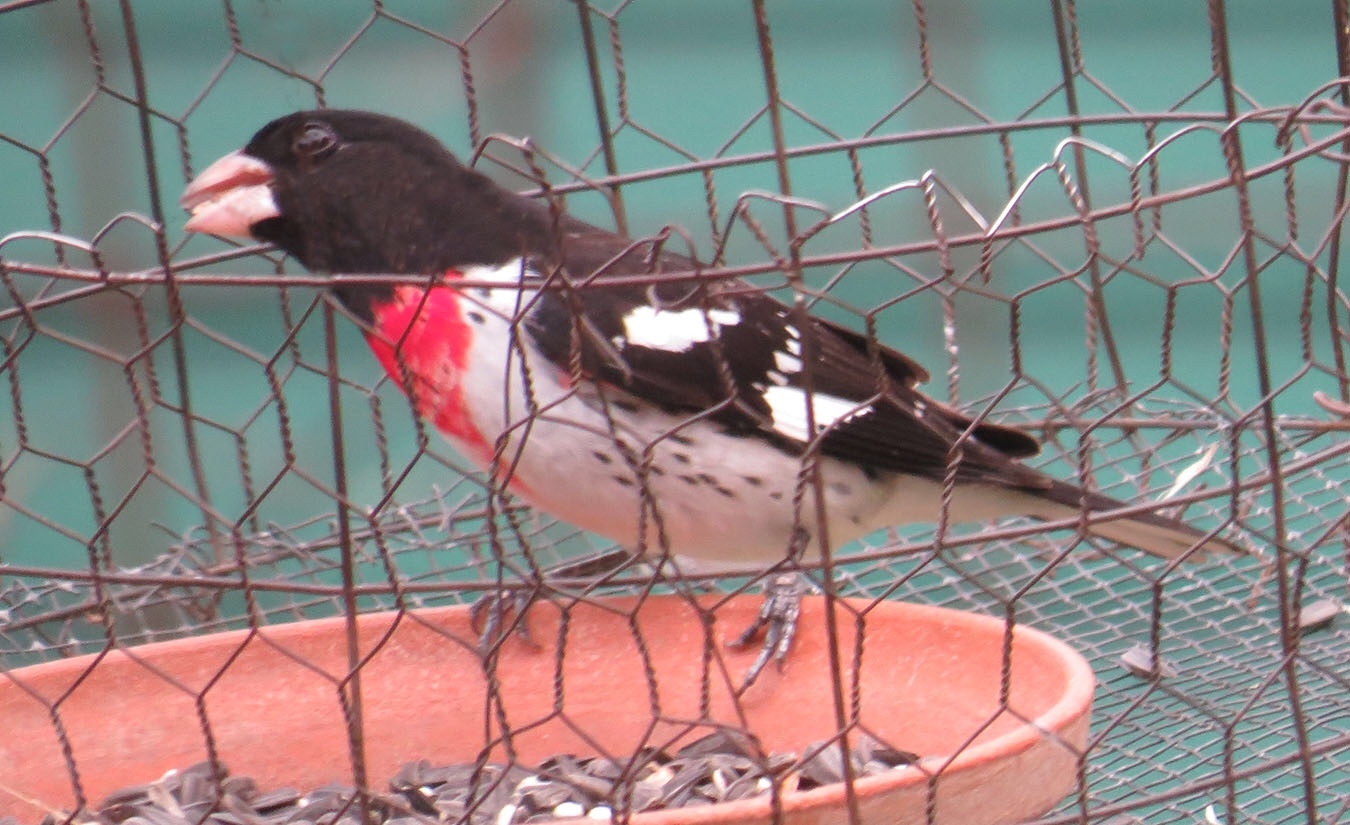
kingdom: Animalia
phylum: Chordata
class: Aves
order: Passeriformes
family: Cardinalidae
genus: Pheucticus
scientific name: Pheucticus ludovicianus
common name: Rose-breasted grosbeak
